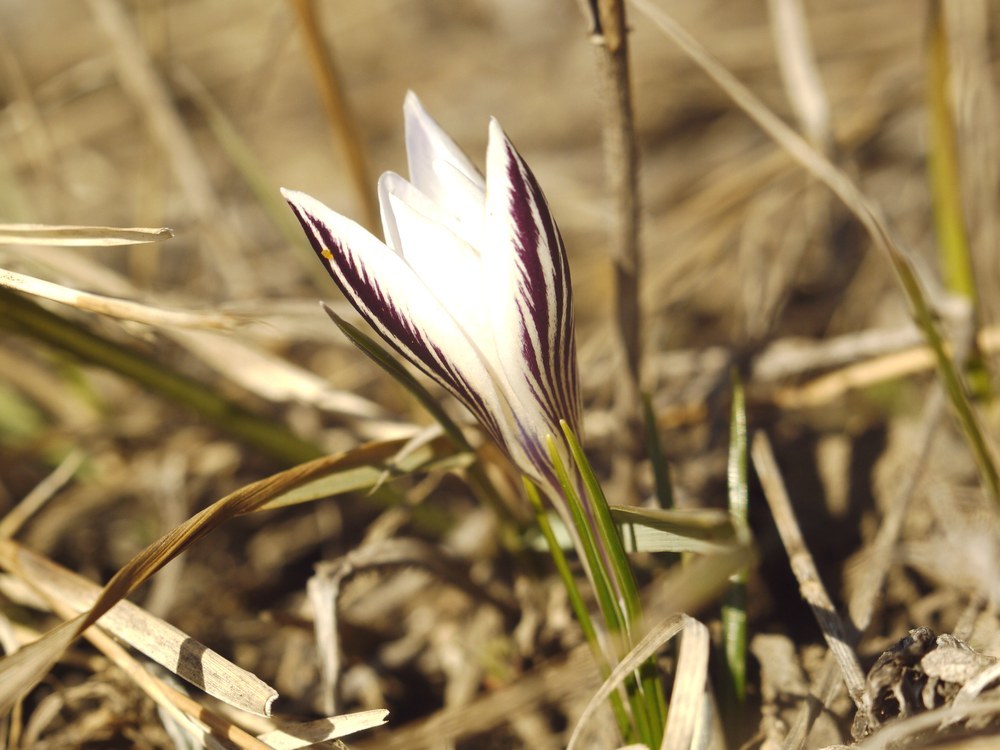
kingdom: Plantae
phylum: Tracheophyta
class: Liliopsida
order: Asparagales
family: Iridaceae
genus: Crocus
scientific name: Crocus reticulatus
